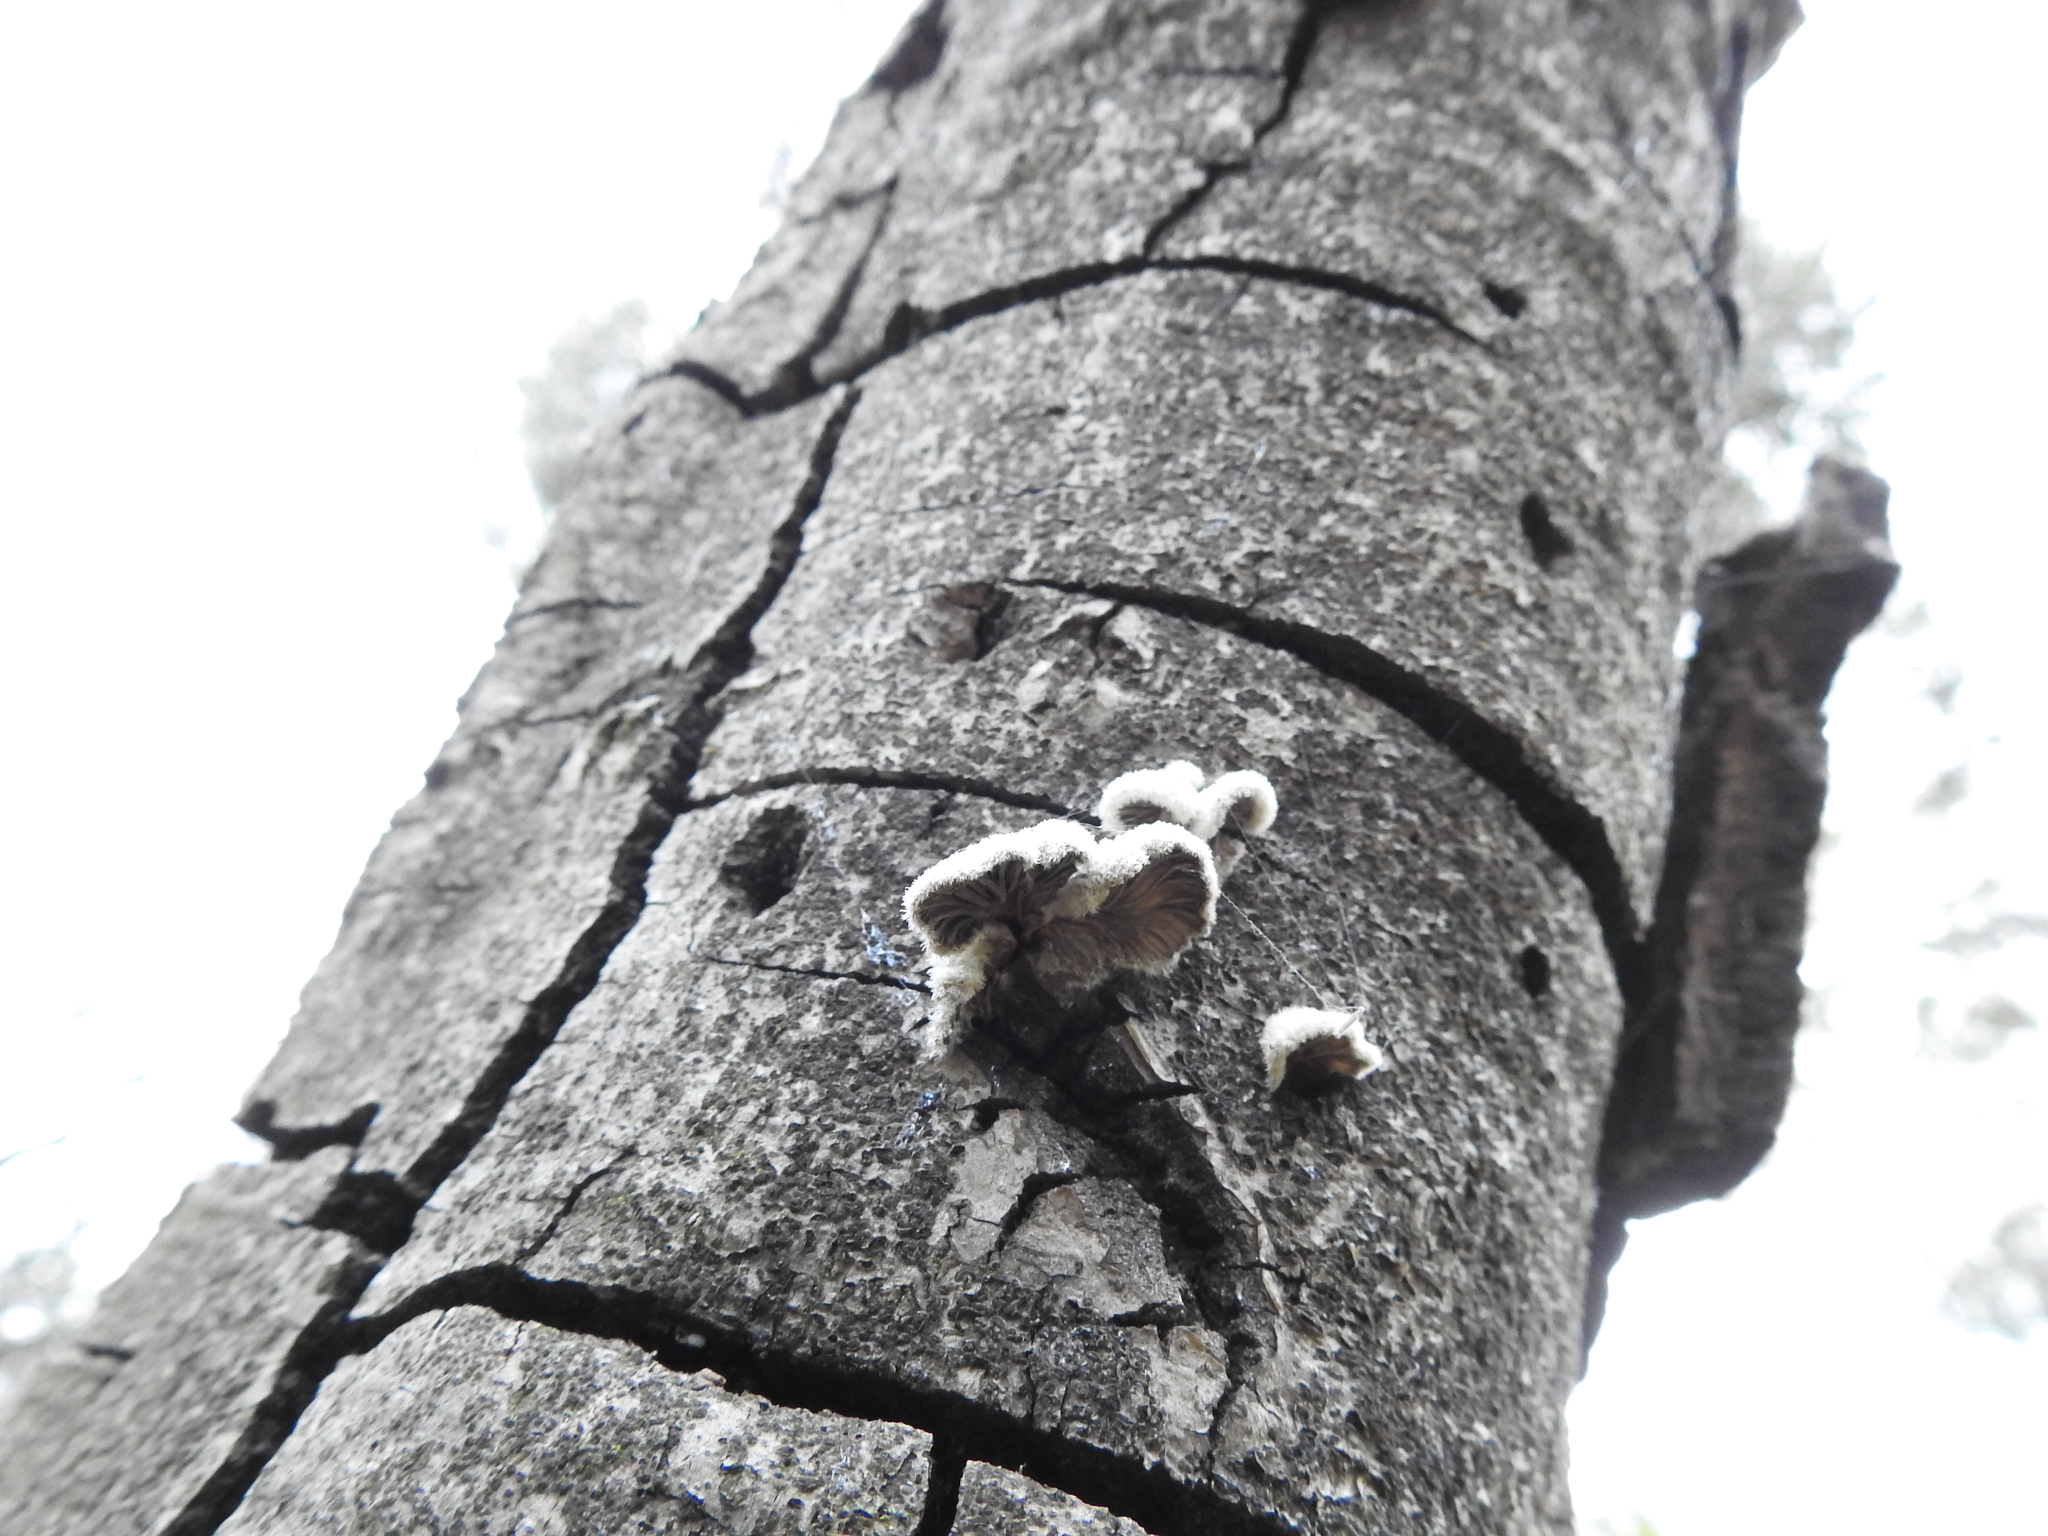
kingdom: Fungi
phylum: Basidiomycota
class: Agaricomycetes
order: Agaricales
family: Schizophyllaceae
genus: Schizophyllum
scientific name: Schizophyllum commune
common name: Common porecrust
